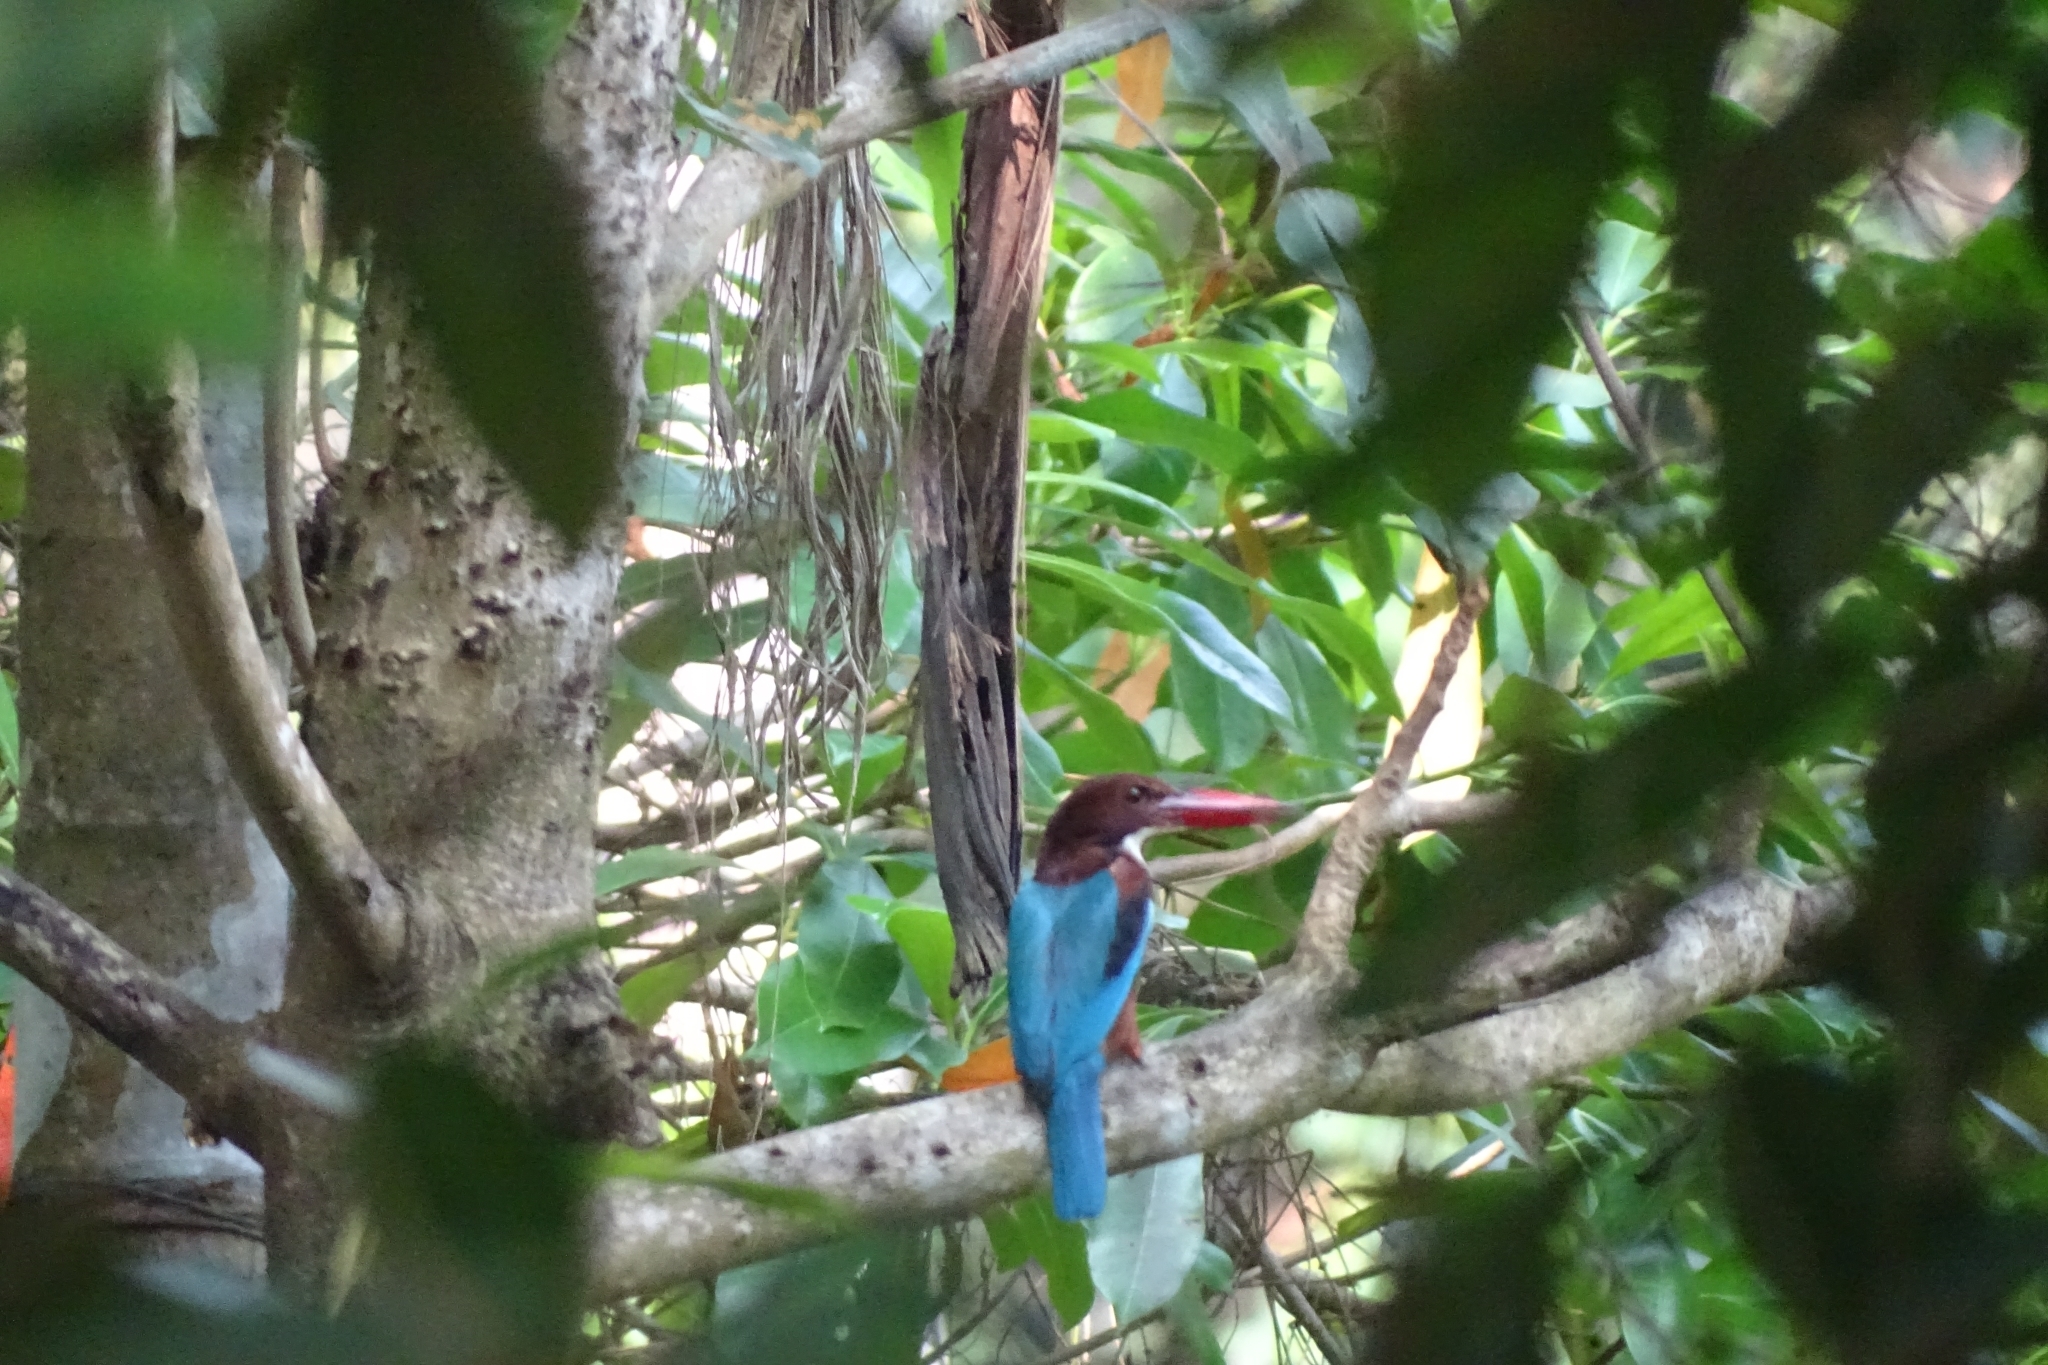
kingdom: Animalia
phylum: Chordata
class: Aves
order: Coraciiformes
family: Alcedinidae
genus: Halcyon
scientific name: Halcyon smyrnensis
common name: White-throated kingfisher
